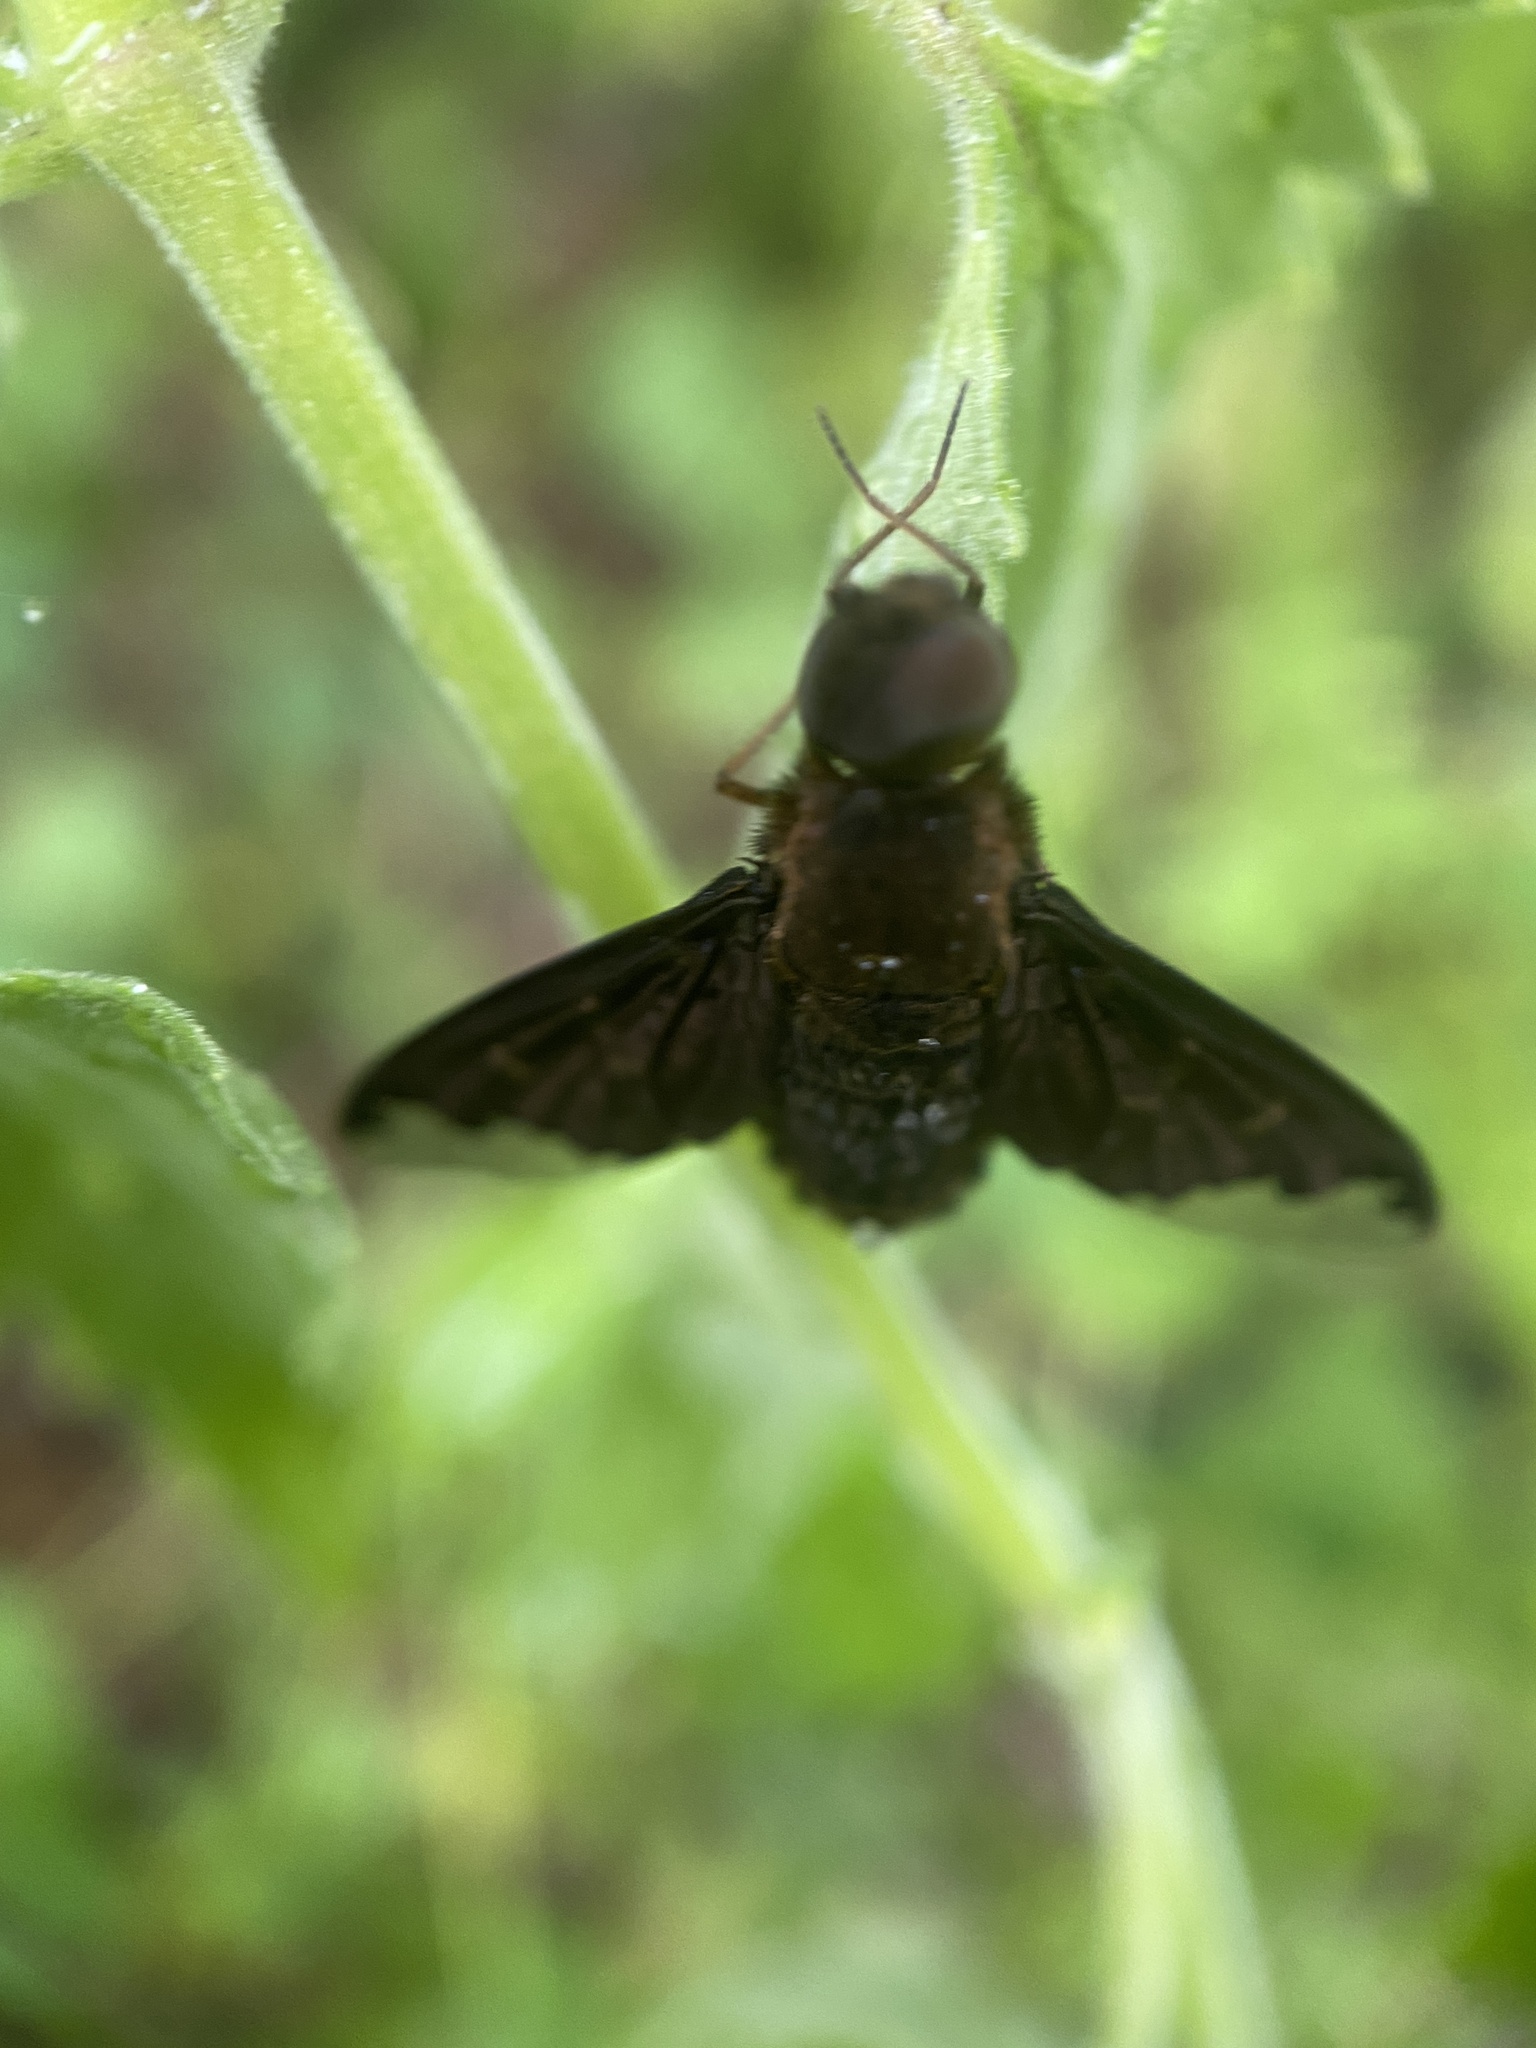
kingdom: Animalia
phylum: Arthropoda
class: Insecta
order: Diptera
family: Bombyliidae
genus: Hemipenthes
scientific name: Hemipenthes sinuosus
